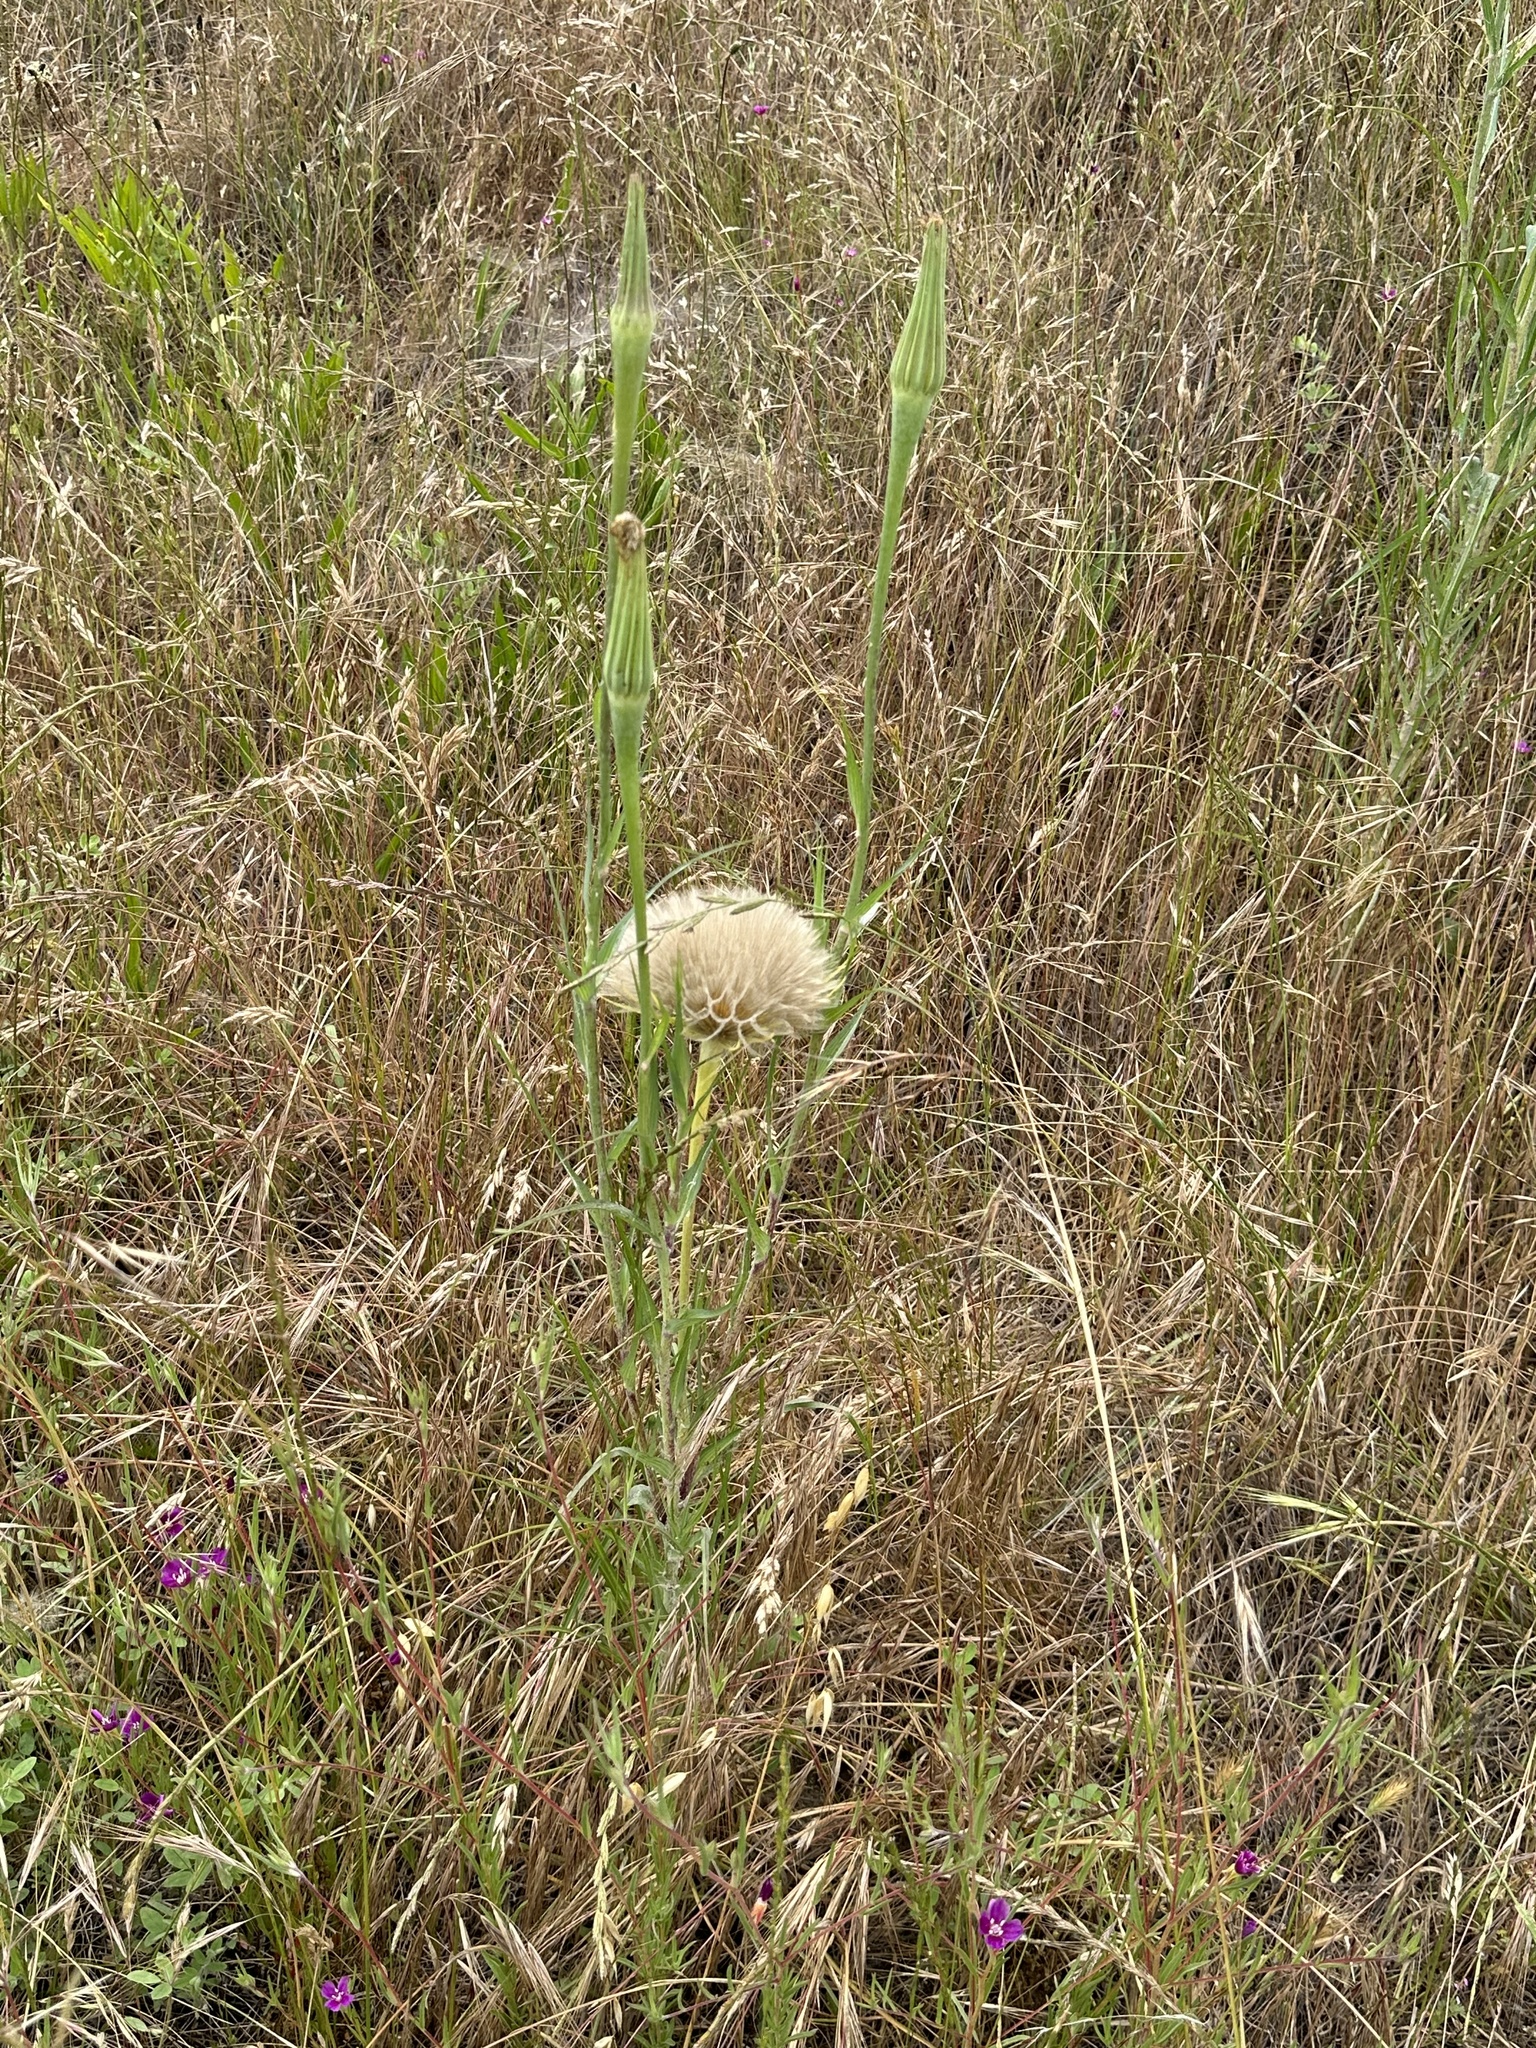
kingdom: Plantae
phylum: Tracheophyta
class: Magnoliopsida
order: Asterales
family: Asteraceae
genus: Tragopogon
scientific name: Tragopogon dubius
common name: Yellow salsify
